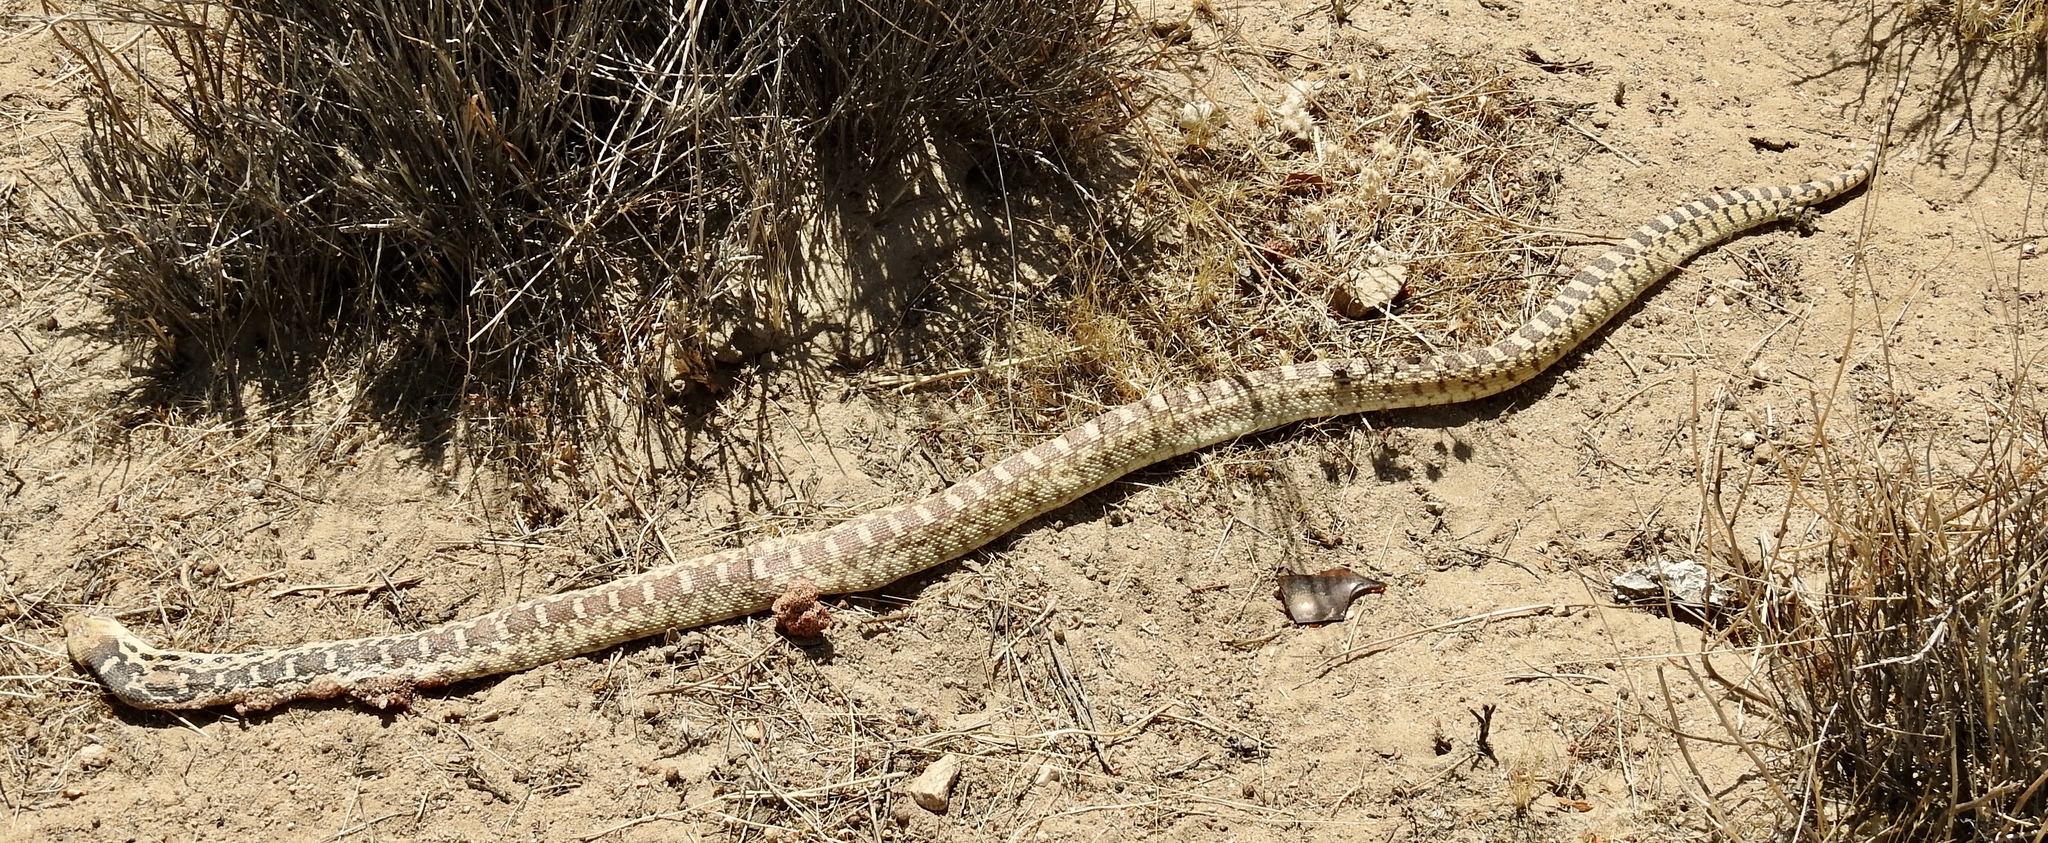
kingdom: Animalia
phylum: Chordata
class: Squamata
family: Colubridae
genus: Pituophis
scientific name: Pituophis catenifer
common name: Gopher snake
